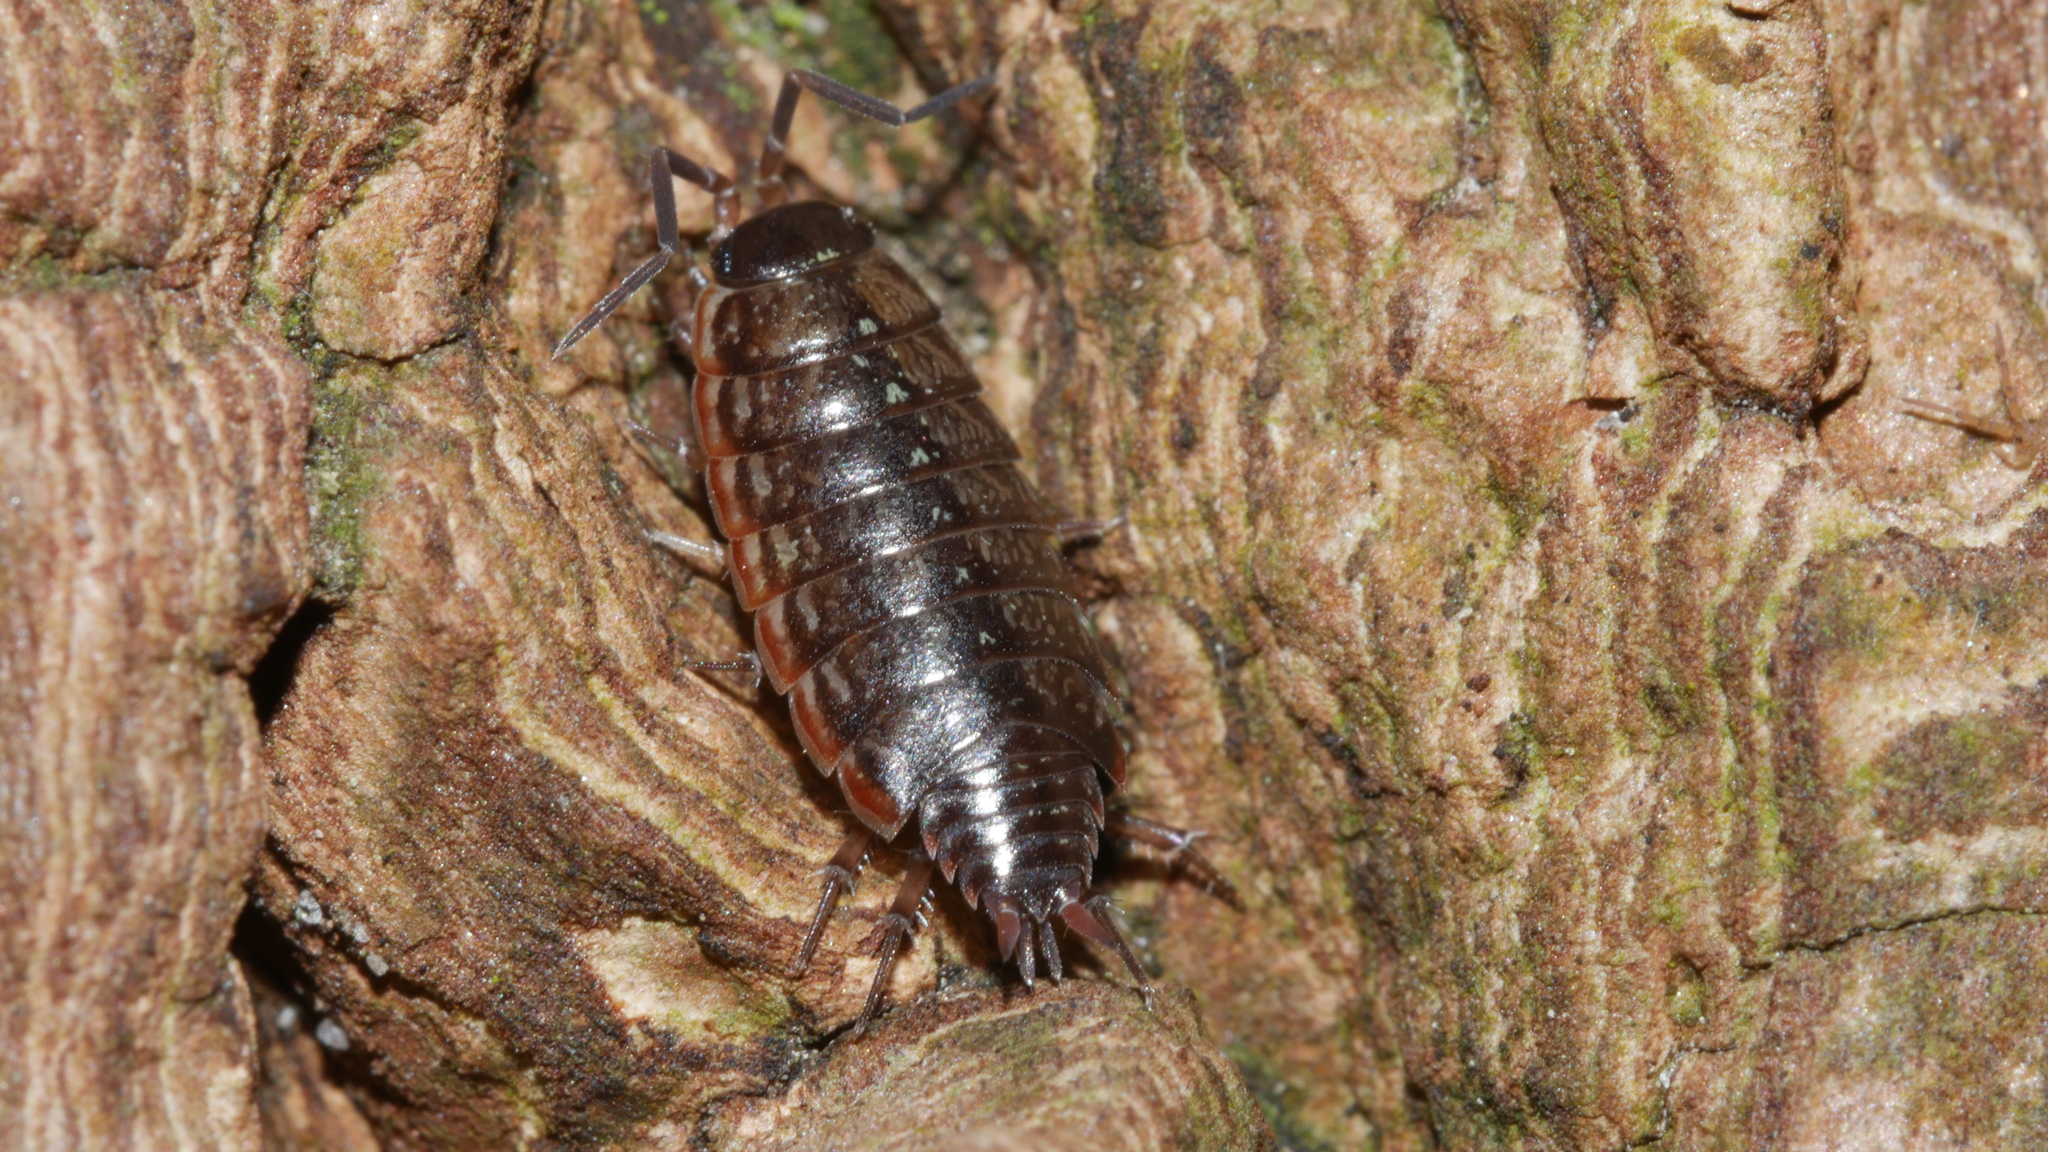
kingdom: Animalia
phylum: Arthropoda
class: Malacostraca
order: Isopoda
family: Philosciidae
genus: Philoscia
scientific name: Philoscia muscorum
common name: Common striped woodlouse
